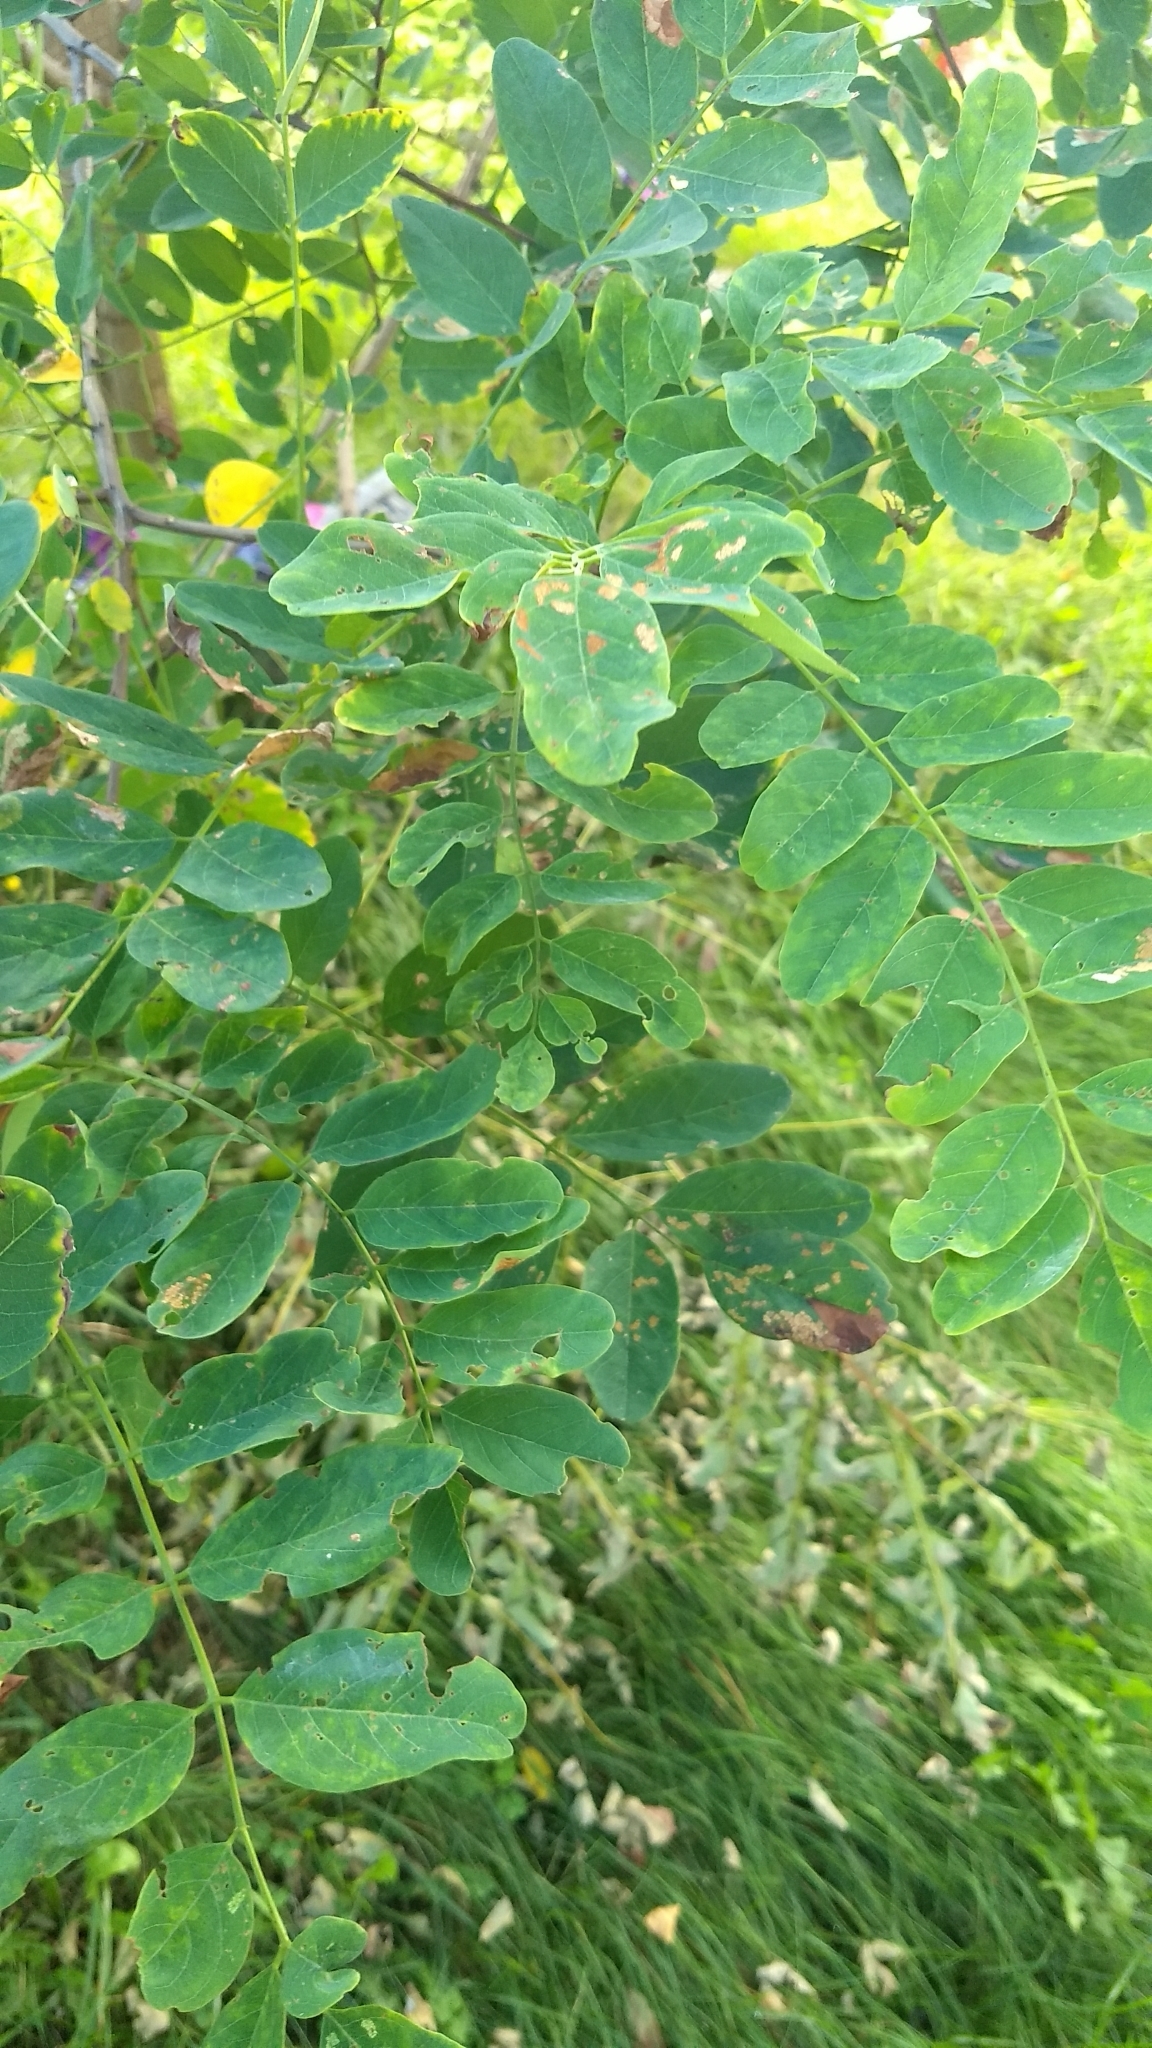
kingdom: Plantae
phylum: Tracheophyta
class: Magnoliopsida
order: Fabales
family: Fabaceae
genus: Robinia
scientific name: Robinia pseudoacacia
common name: Black locust
